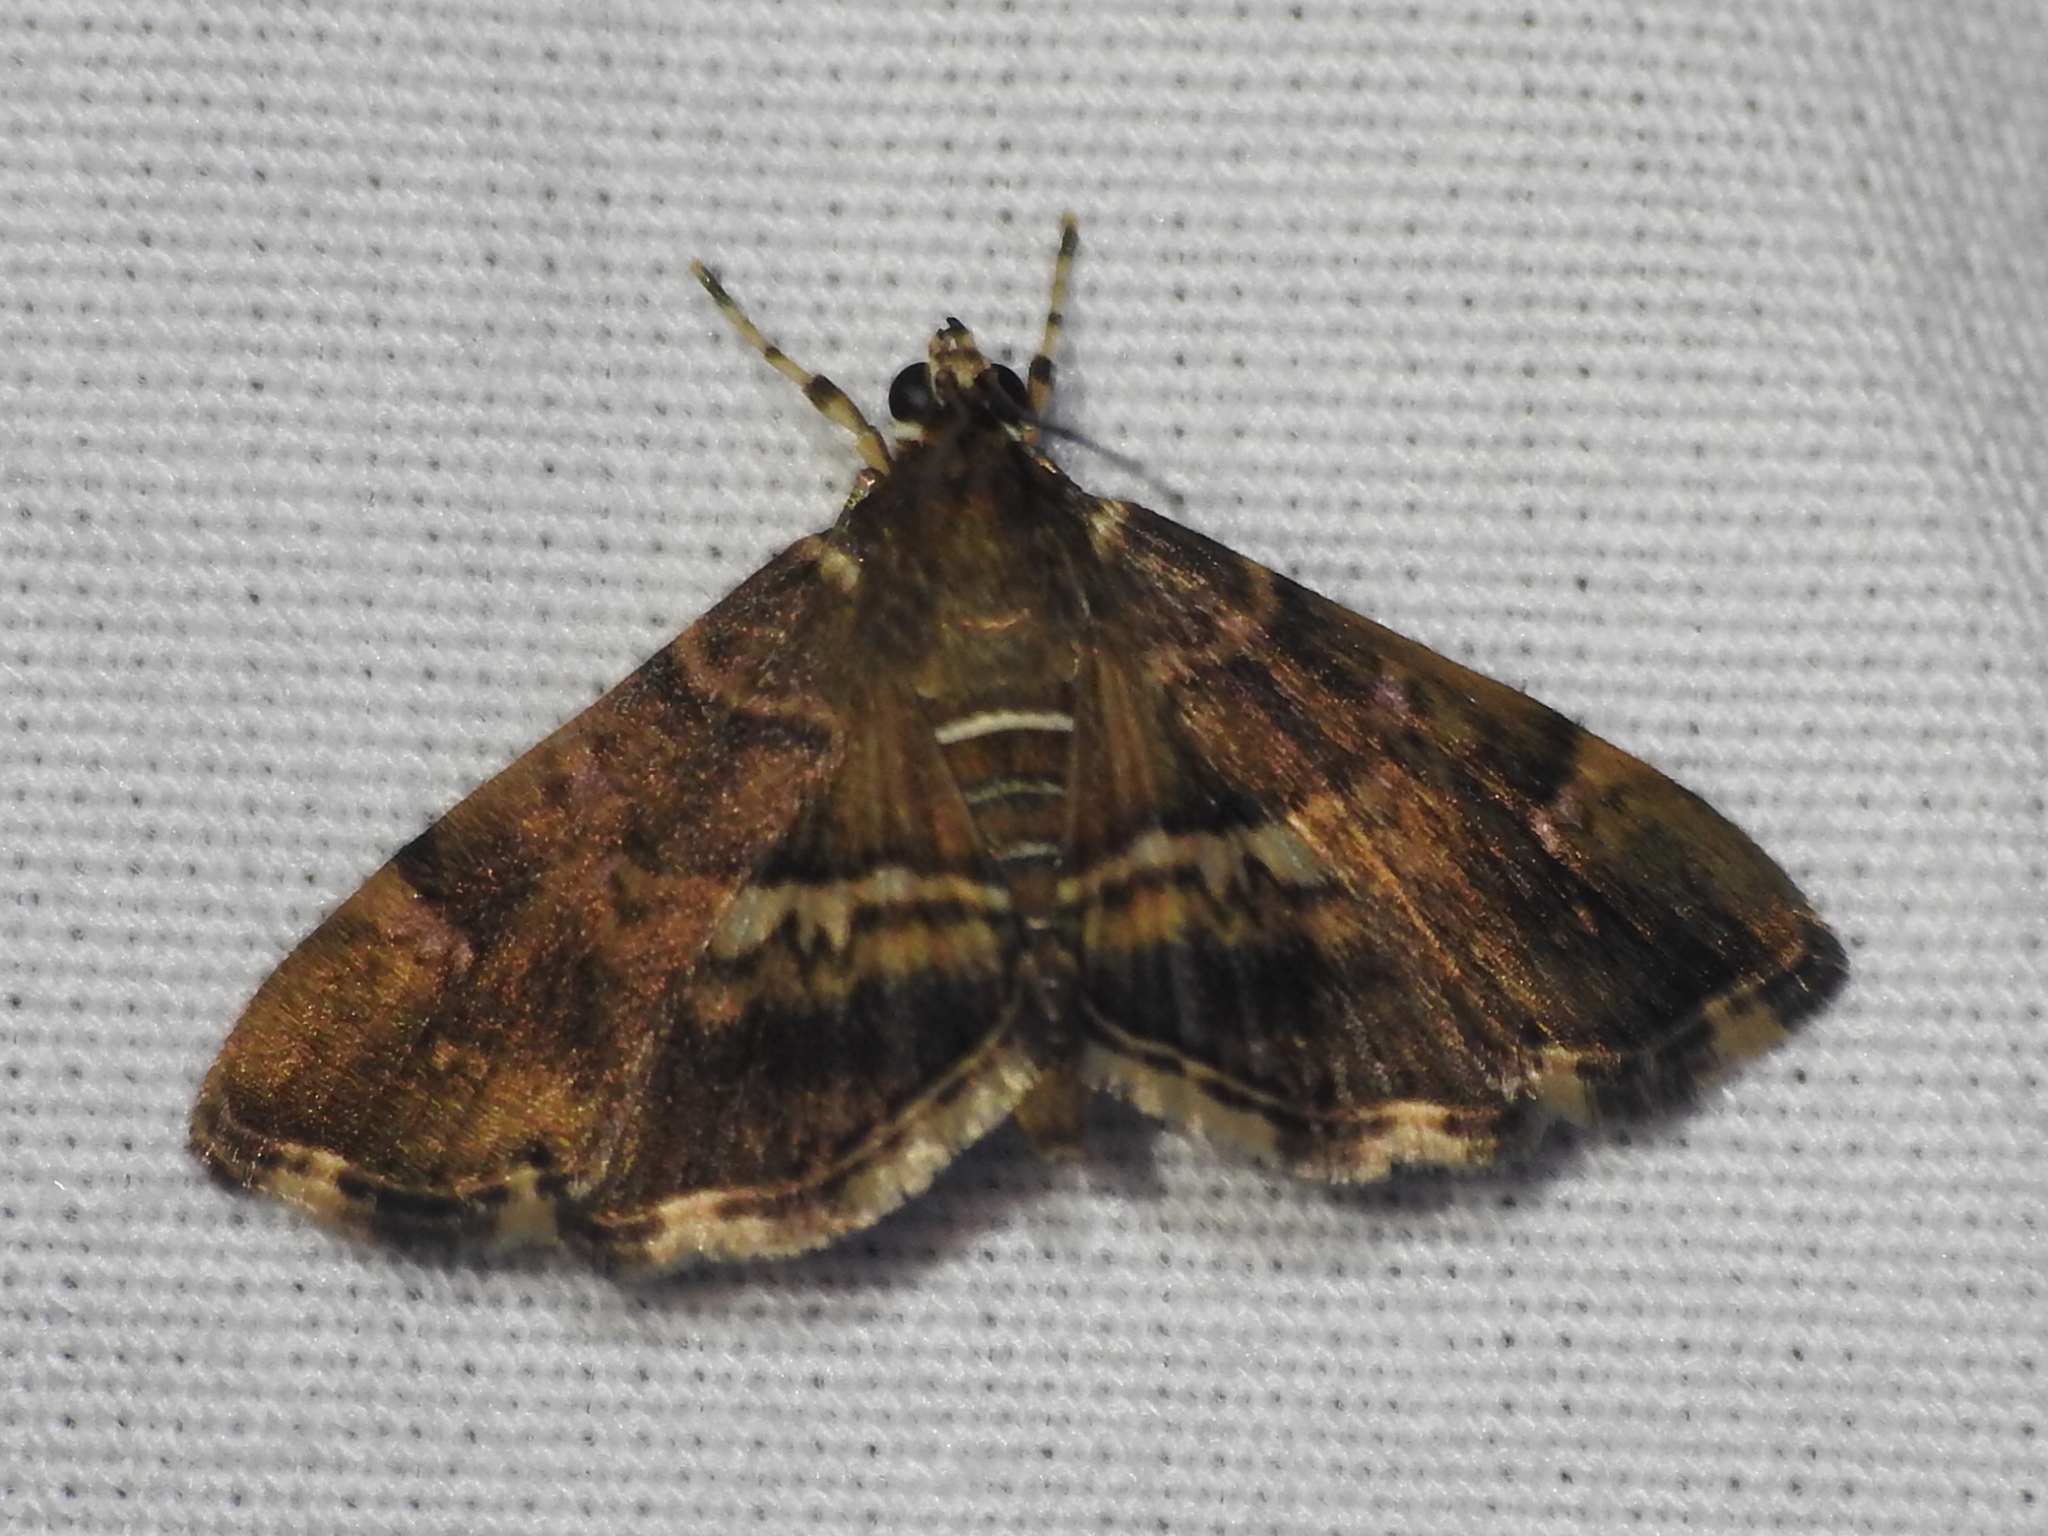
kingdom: Animalia
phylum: Arthropoda
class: Insecta
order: Lepidoptera
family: Crambidae
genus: Hymenia
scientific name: Hymenia perspectalis
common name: Spotted beet webworm
